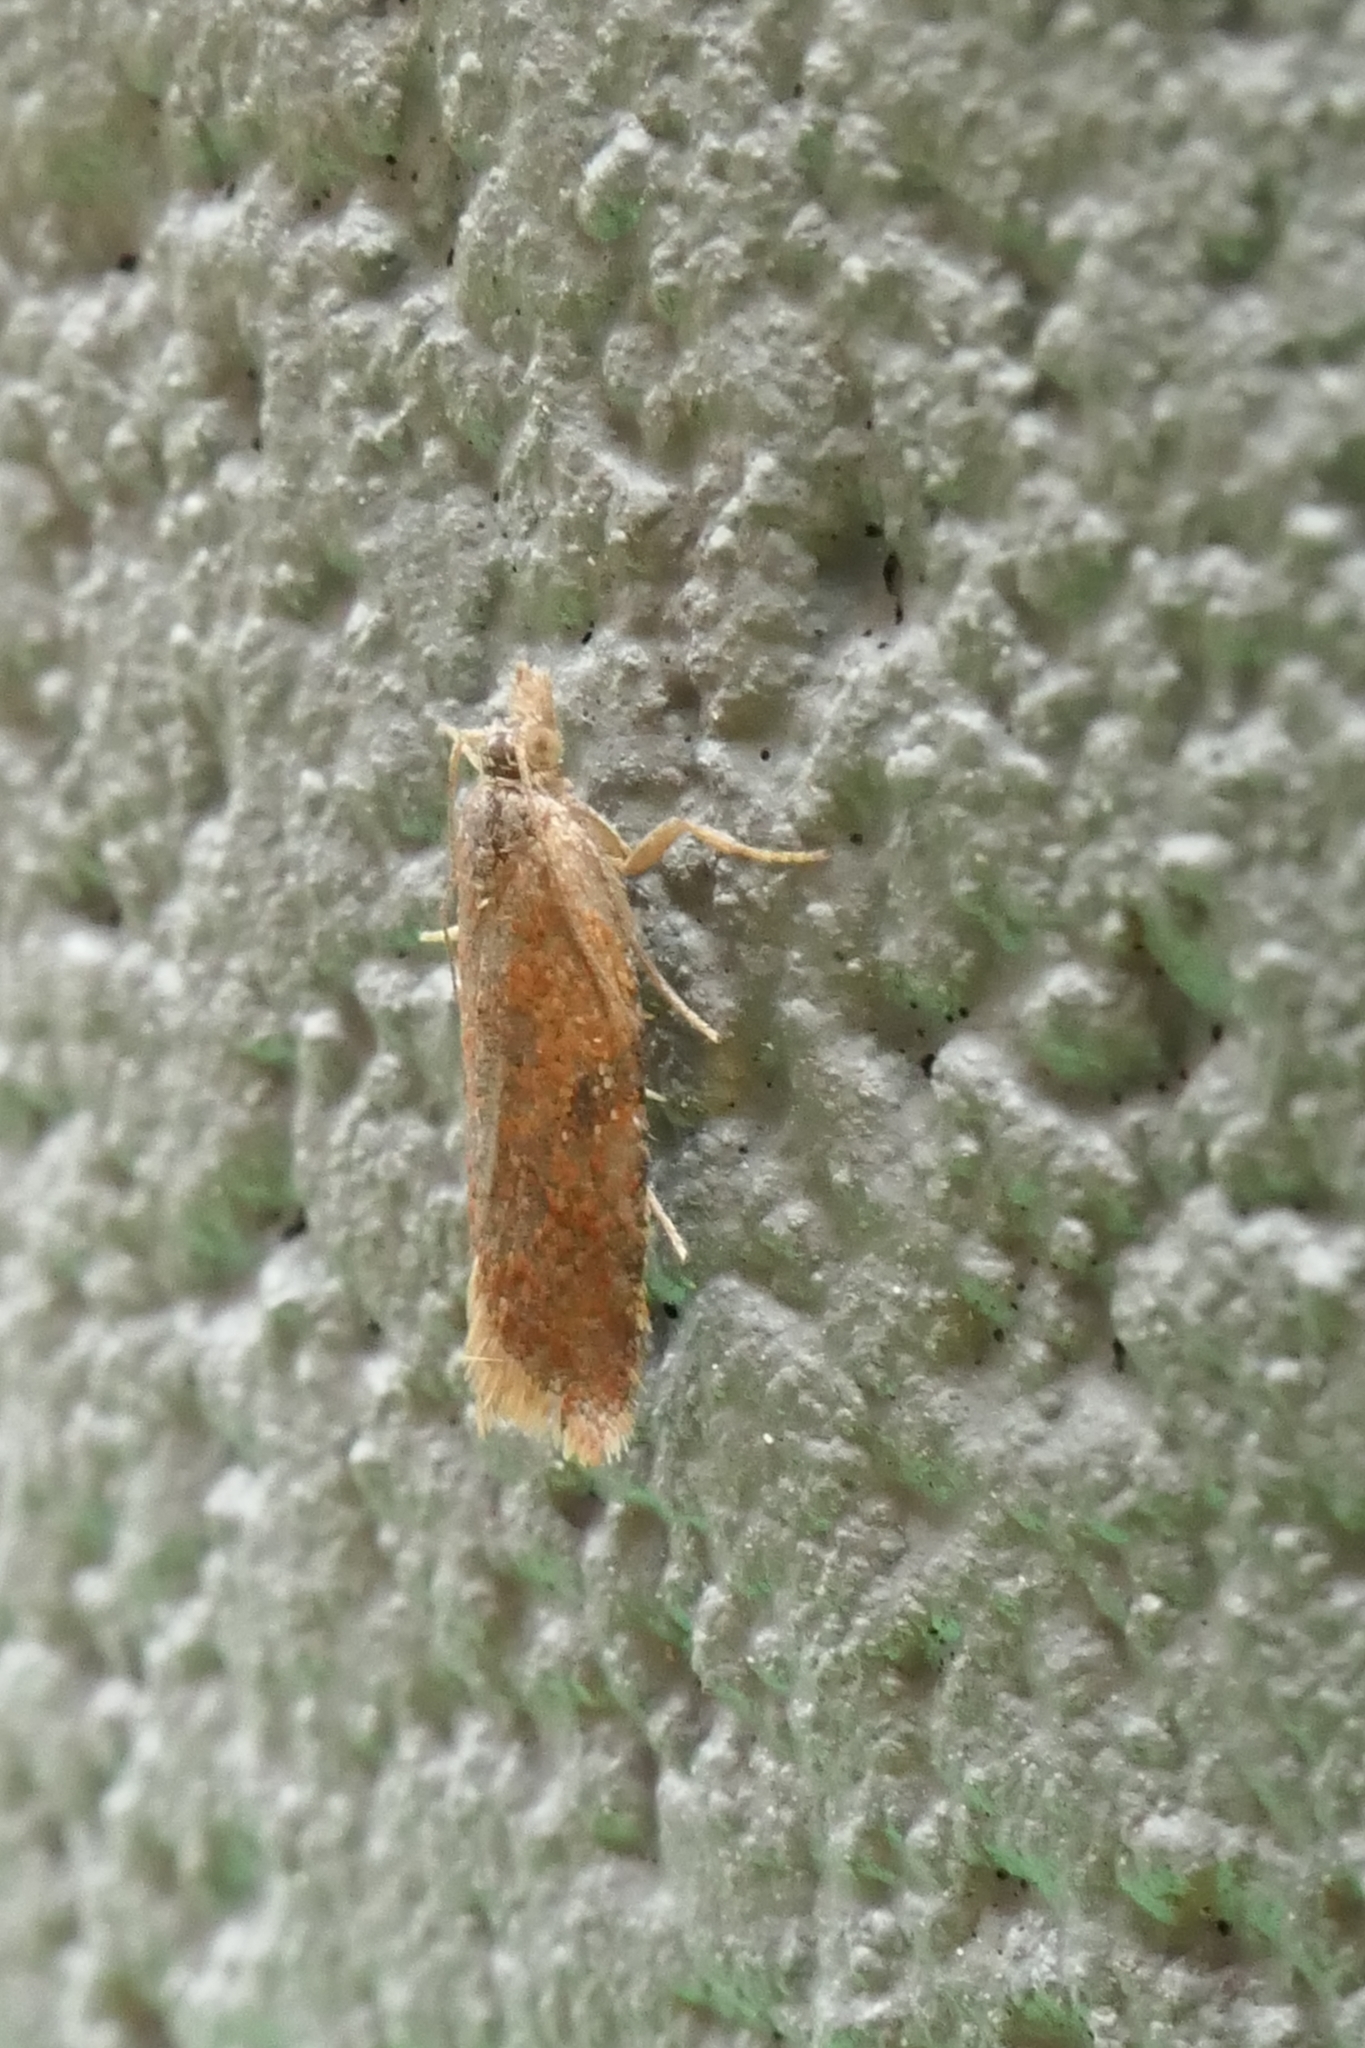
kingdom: Animalia
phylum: Arthropoda
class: Insecta
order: Lepidoptera
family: Tortricidae
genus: Capua
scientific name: Capua semiferana
